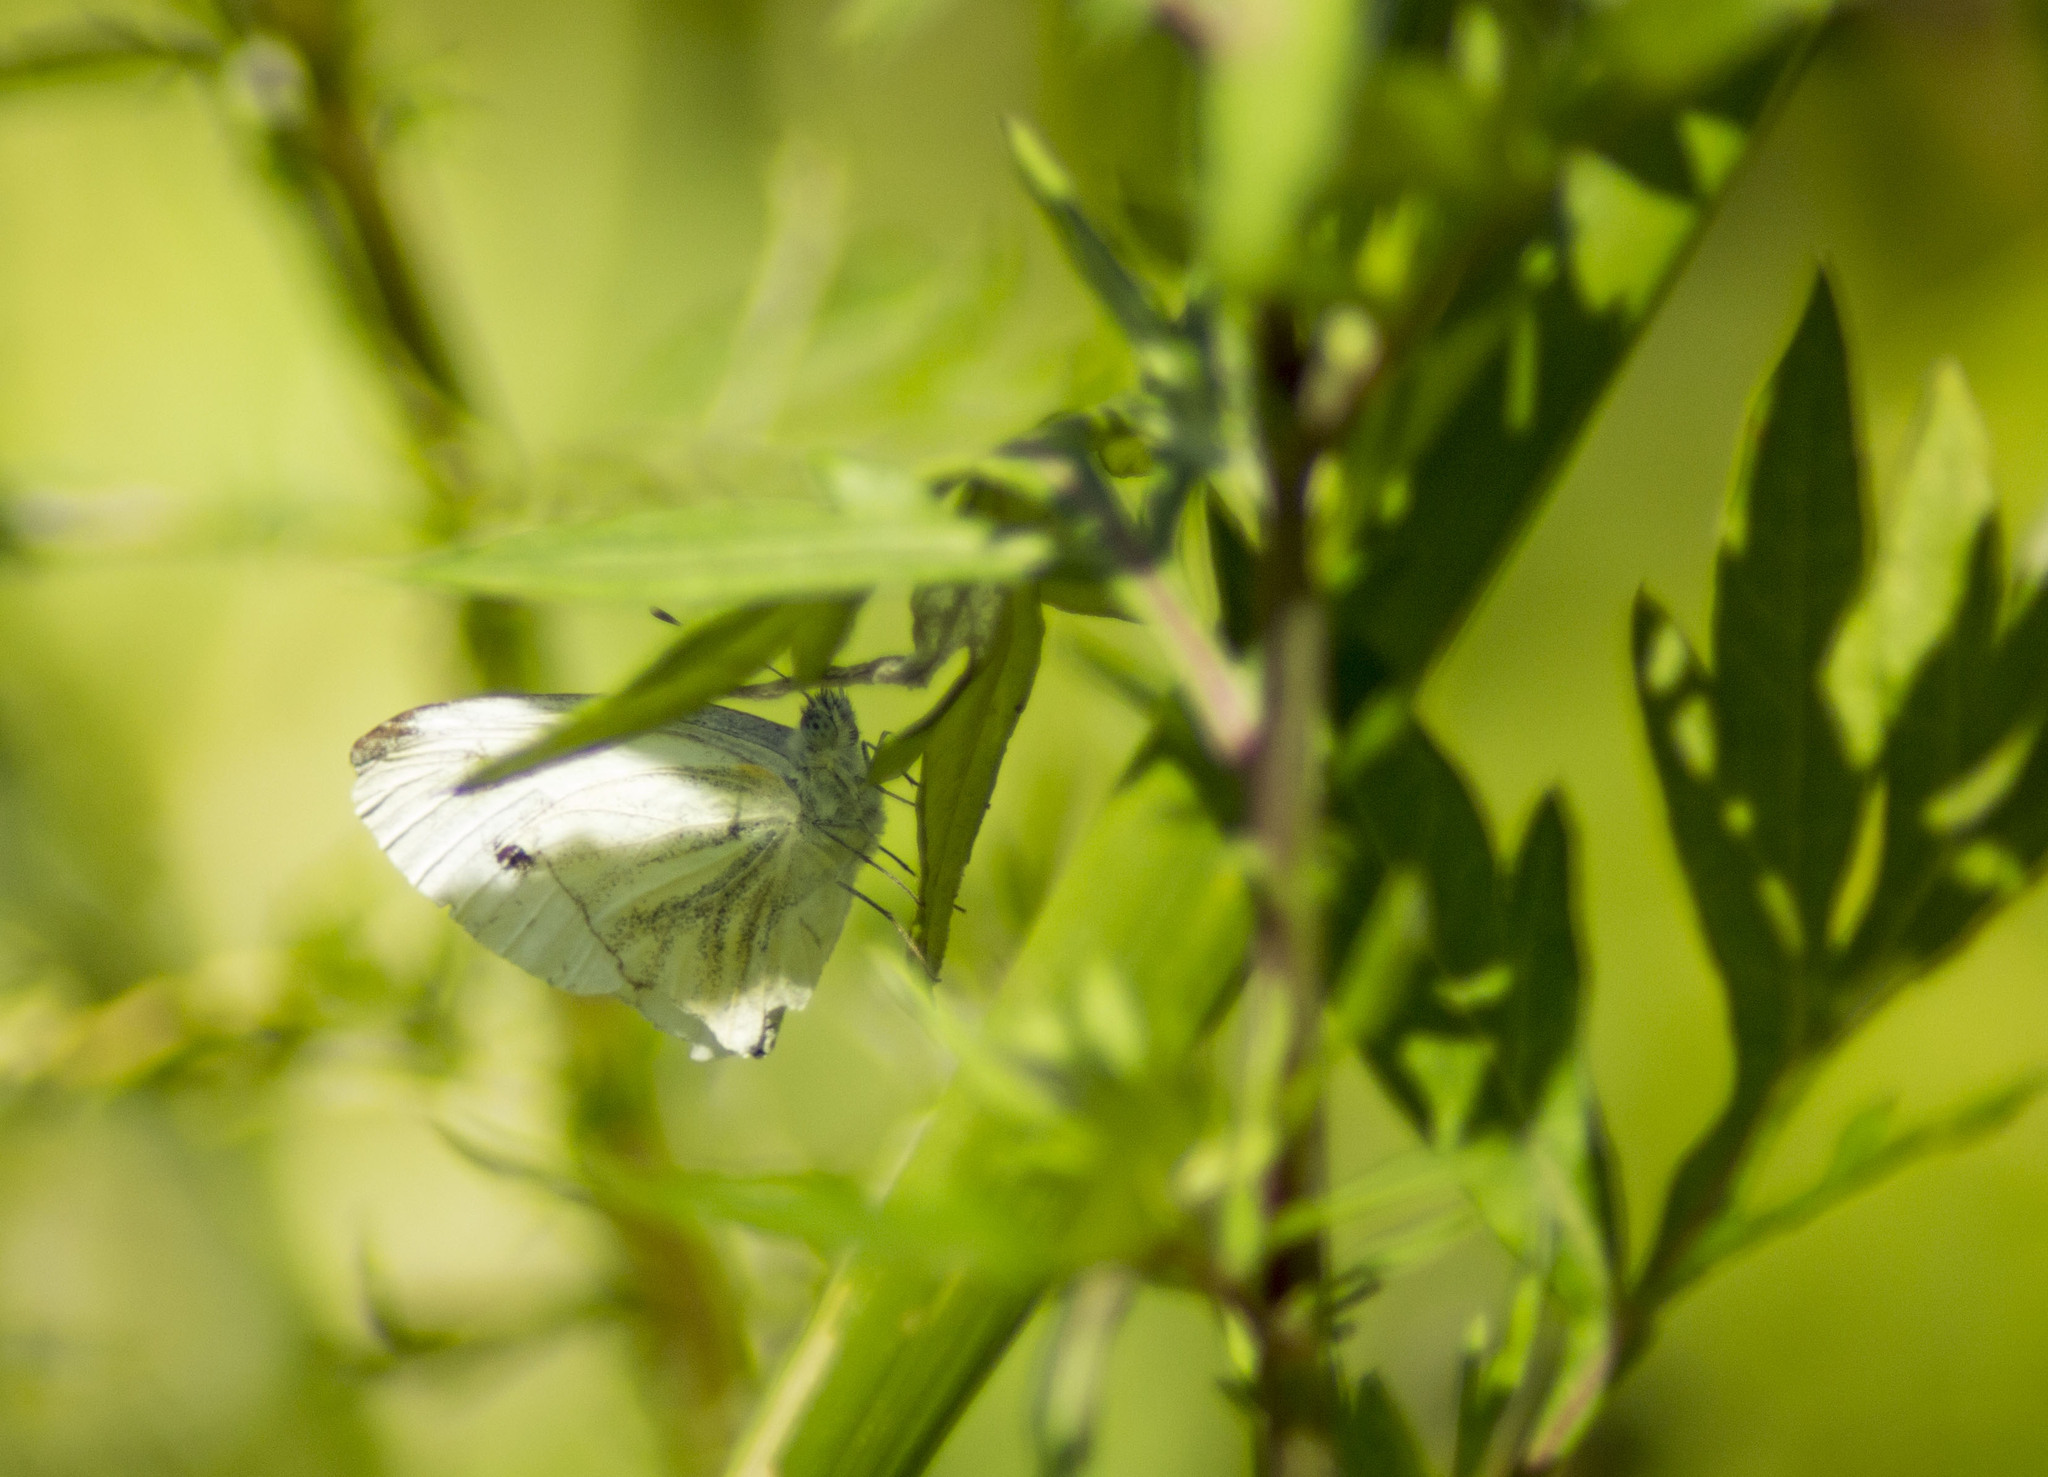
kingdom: Animalia
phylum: Arthropoda
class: Insecta
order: Lepidoptera
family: Pieridae
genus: Pieris
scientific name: Pieris napi
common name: Green-veined white
